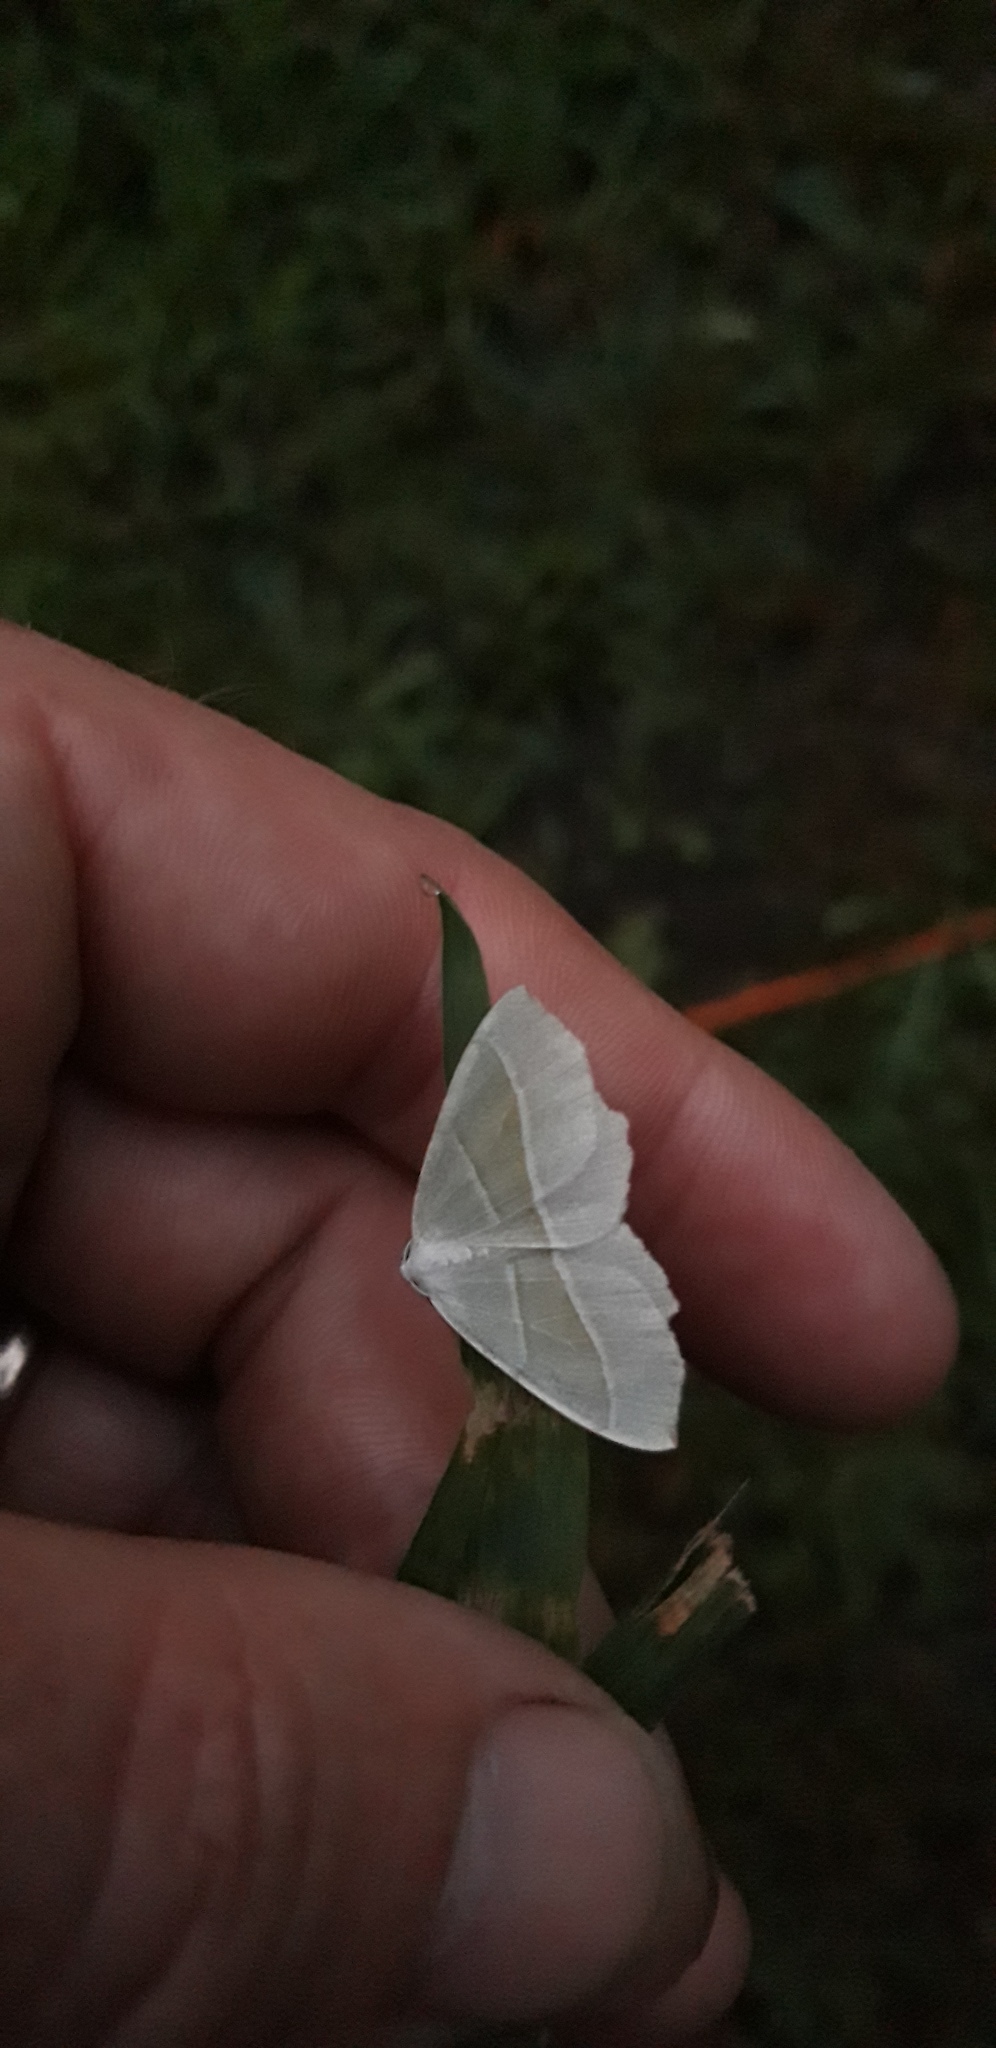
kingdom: Animalia
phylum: Arthropoda
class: Insecta
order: Lepidoptera
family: Geometridae
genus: Campaea
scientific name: Campaea margaritaria
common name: Light emerald
